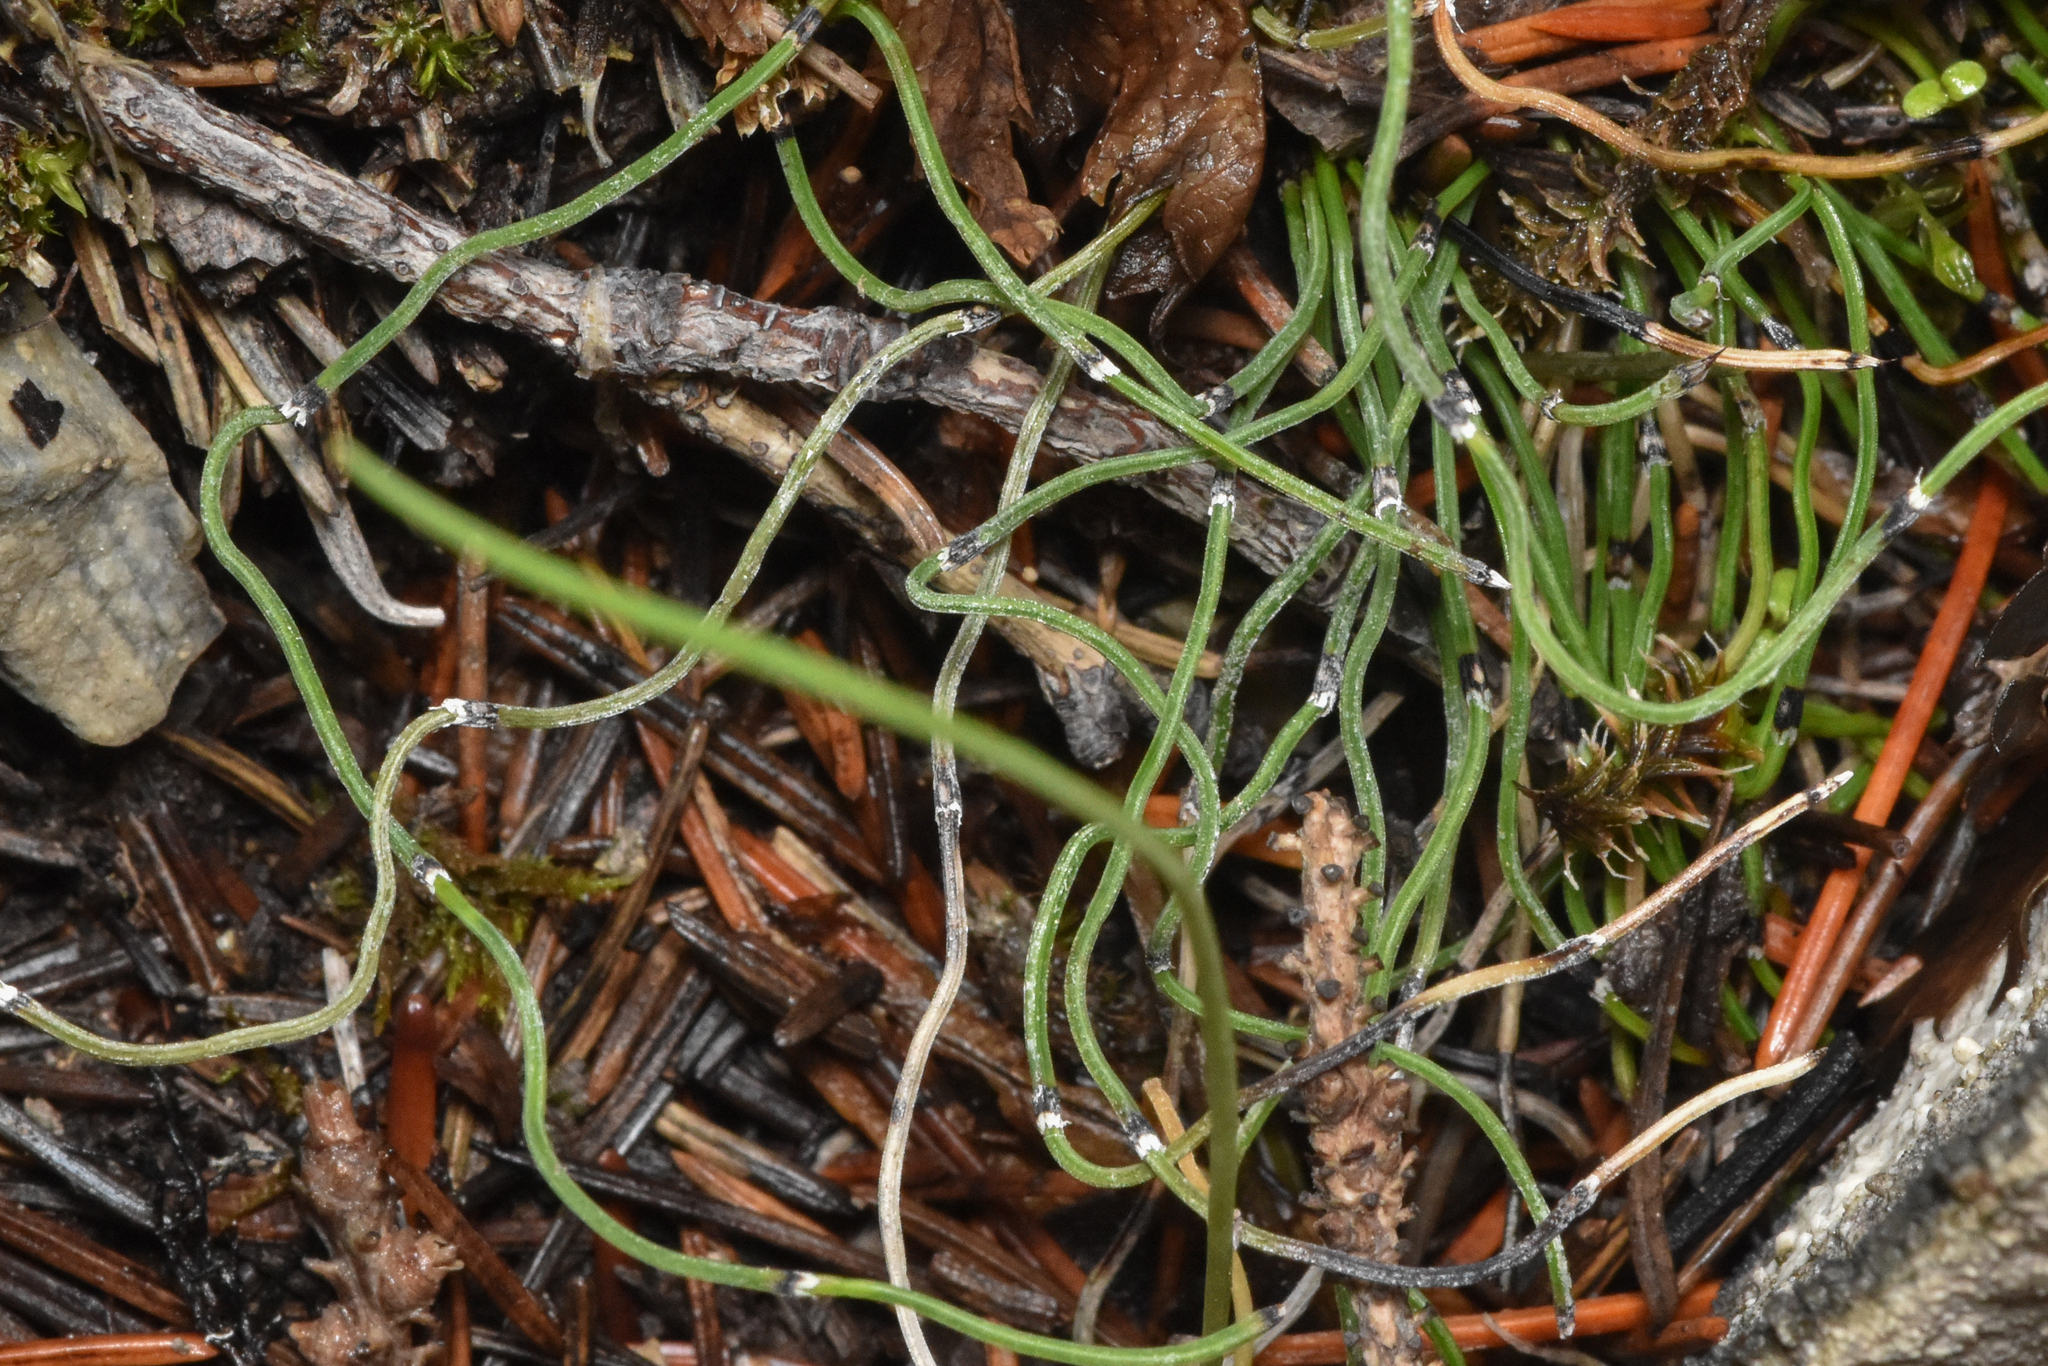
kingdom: Plantae
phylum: Tracheophyta
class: Polypodiopsida
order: Equisetales
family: Equisetaceae
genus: Equisetum
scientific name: Equisetum scirpoides
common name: Delicate horsetail
